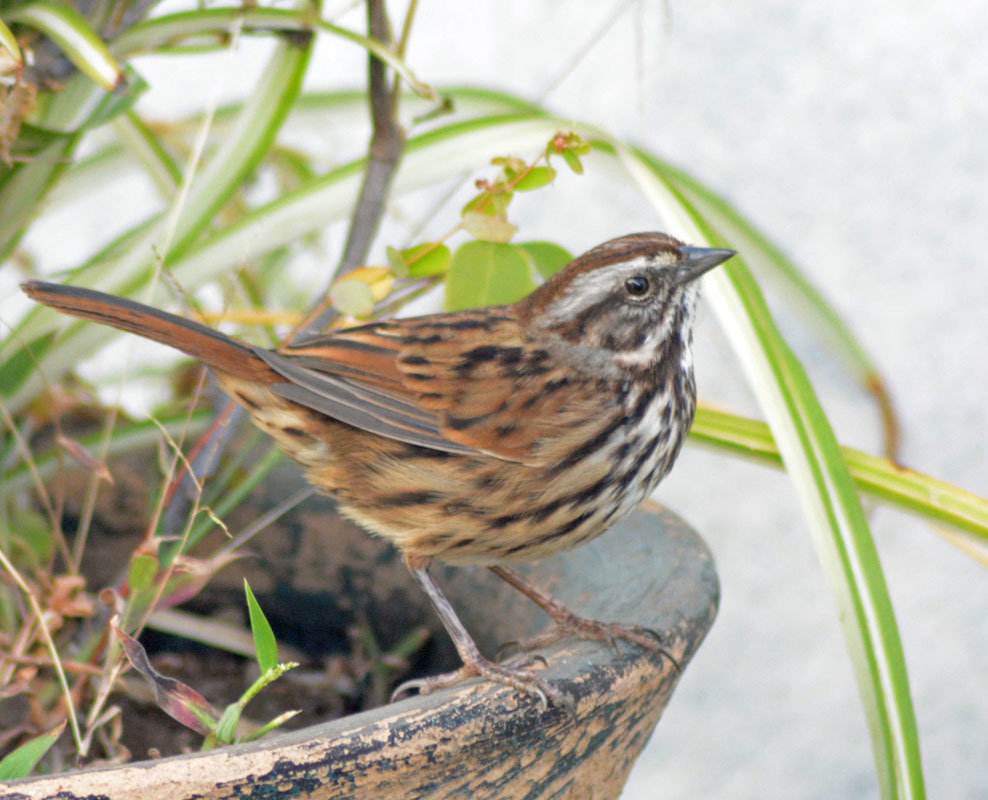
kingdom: Animalia
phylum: Chordata
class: Aves
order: Passeriformes
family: Passerellidae
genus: Melospiza
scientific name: Melospiza melodia
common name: Song sparrow
